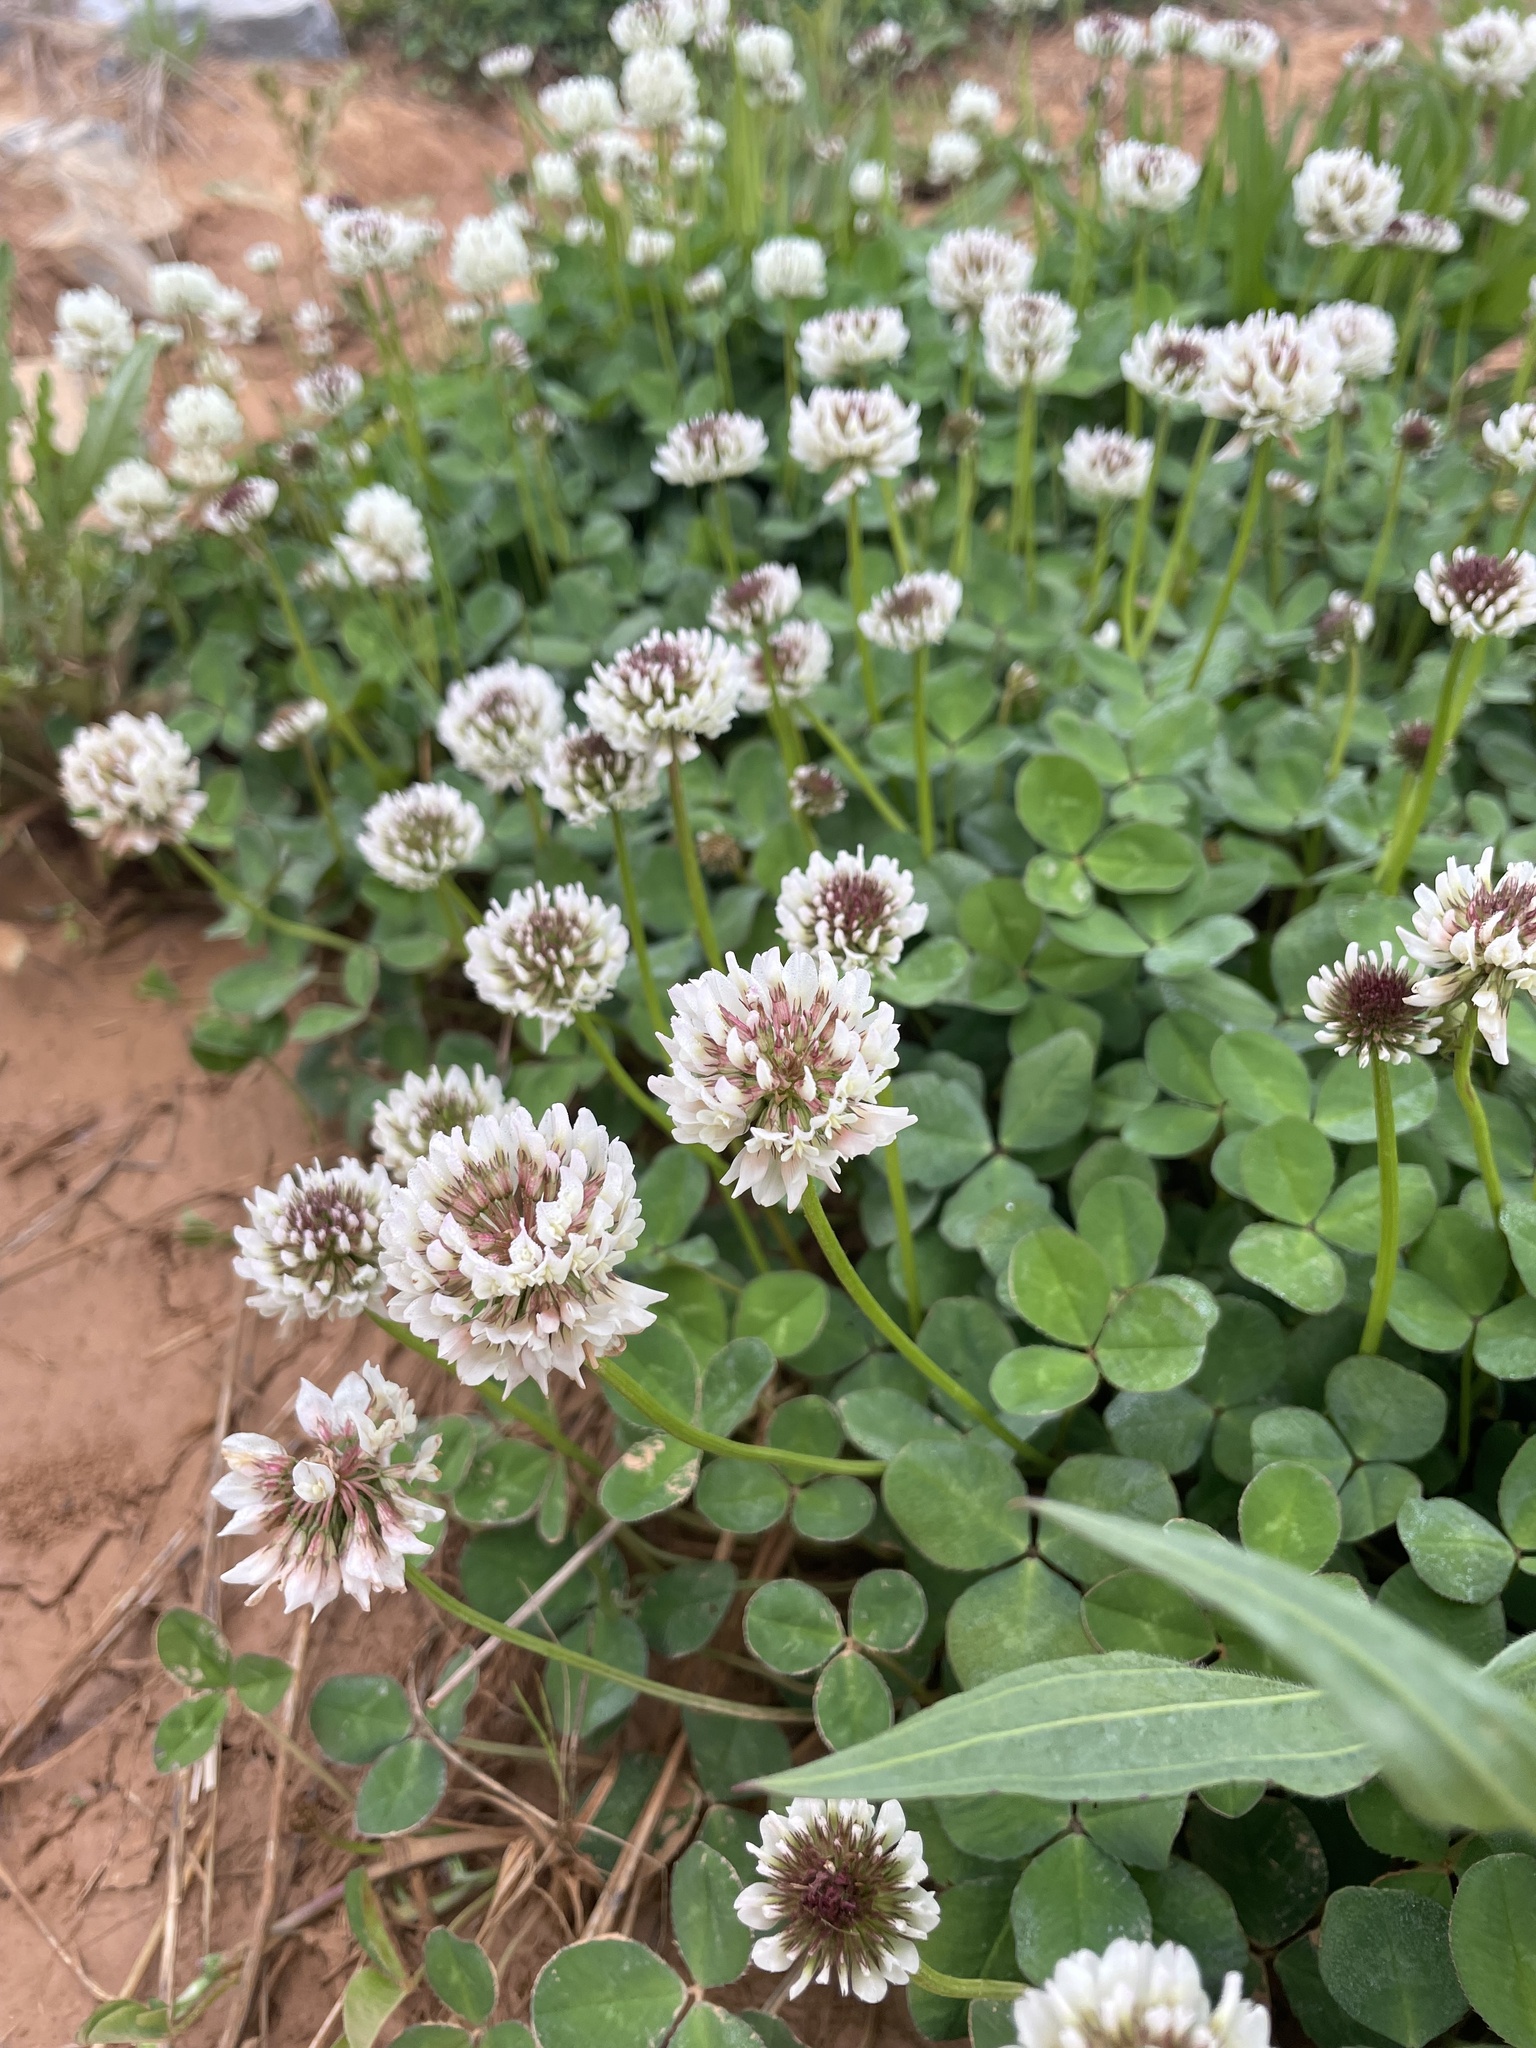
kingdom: Plantae
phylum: Tracheophyta
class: Magnoliopsida
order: Fabales
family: Fabaceae
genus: Trifolium
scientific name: Trifolium repens
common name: White clover
